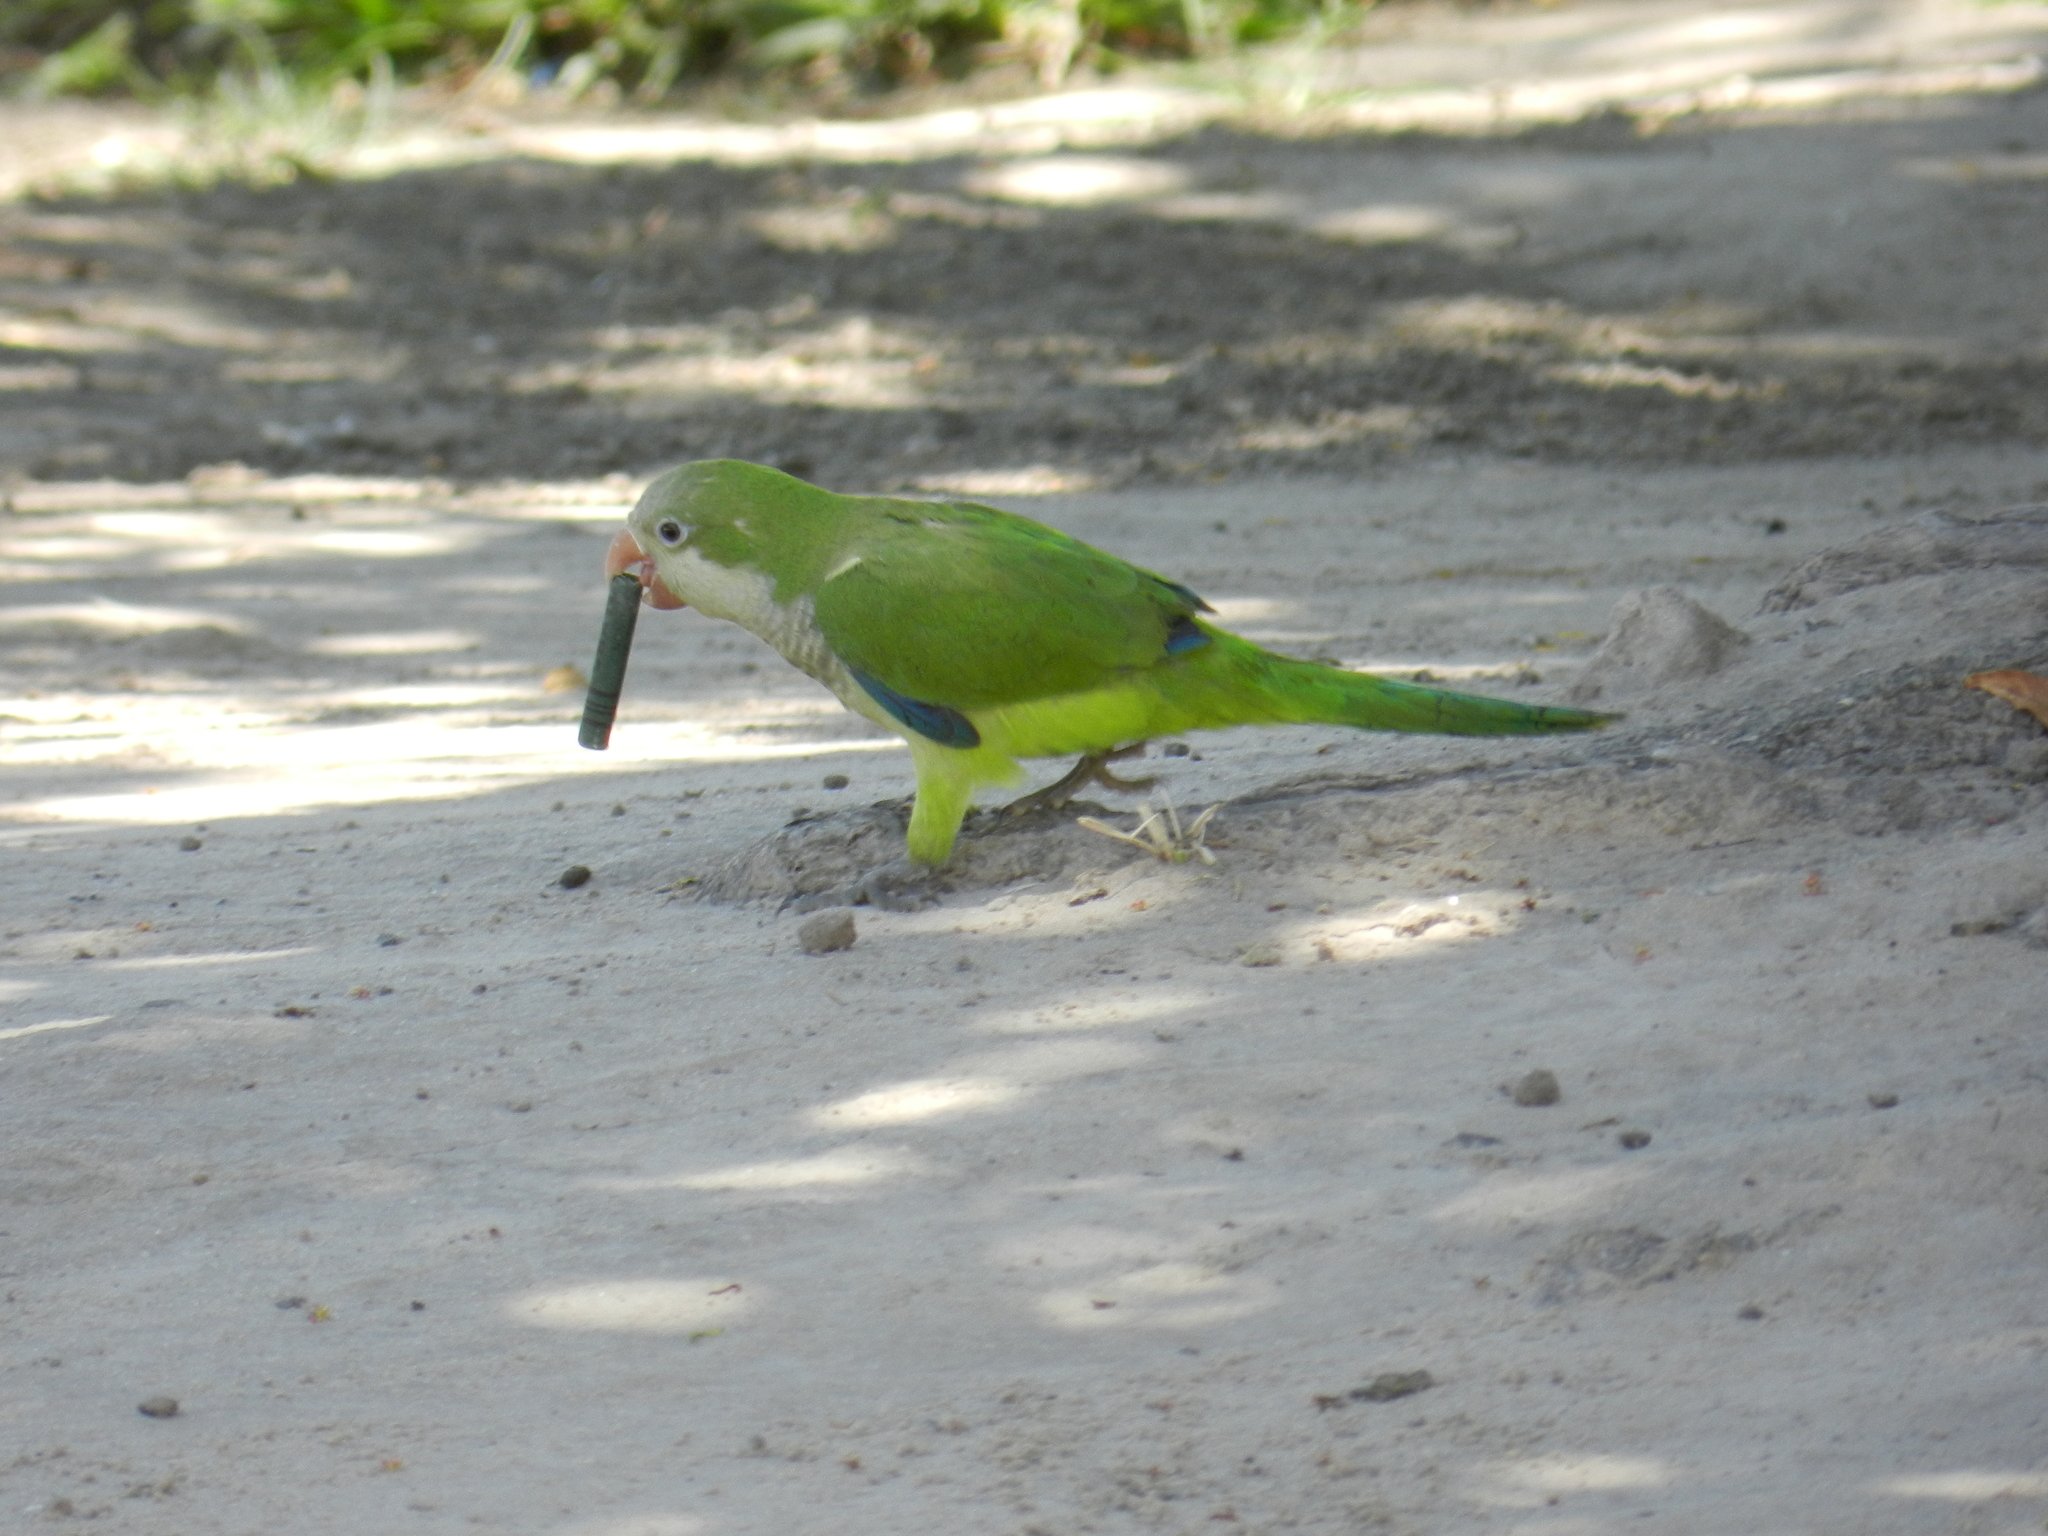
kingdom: Animalia
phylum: Chordata
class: Aves
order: Psittaciformes
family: Psittacidae
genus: Myiopsitta
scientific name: Myiopsitta monachus
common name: Monk parakeet
